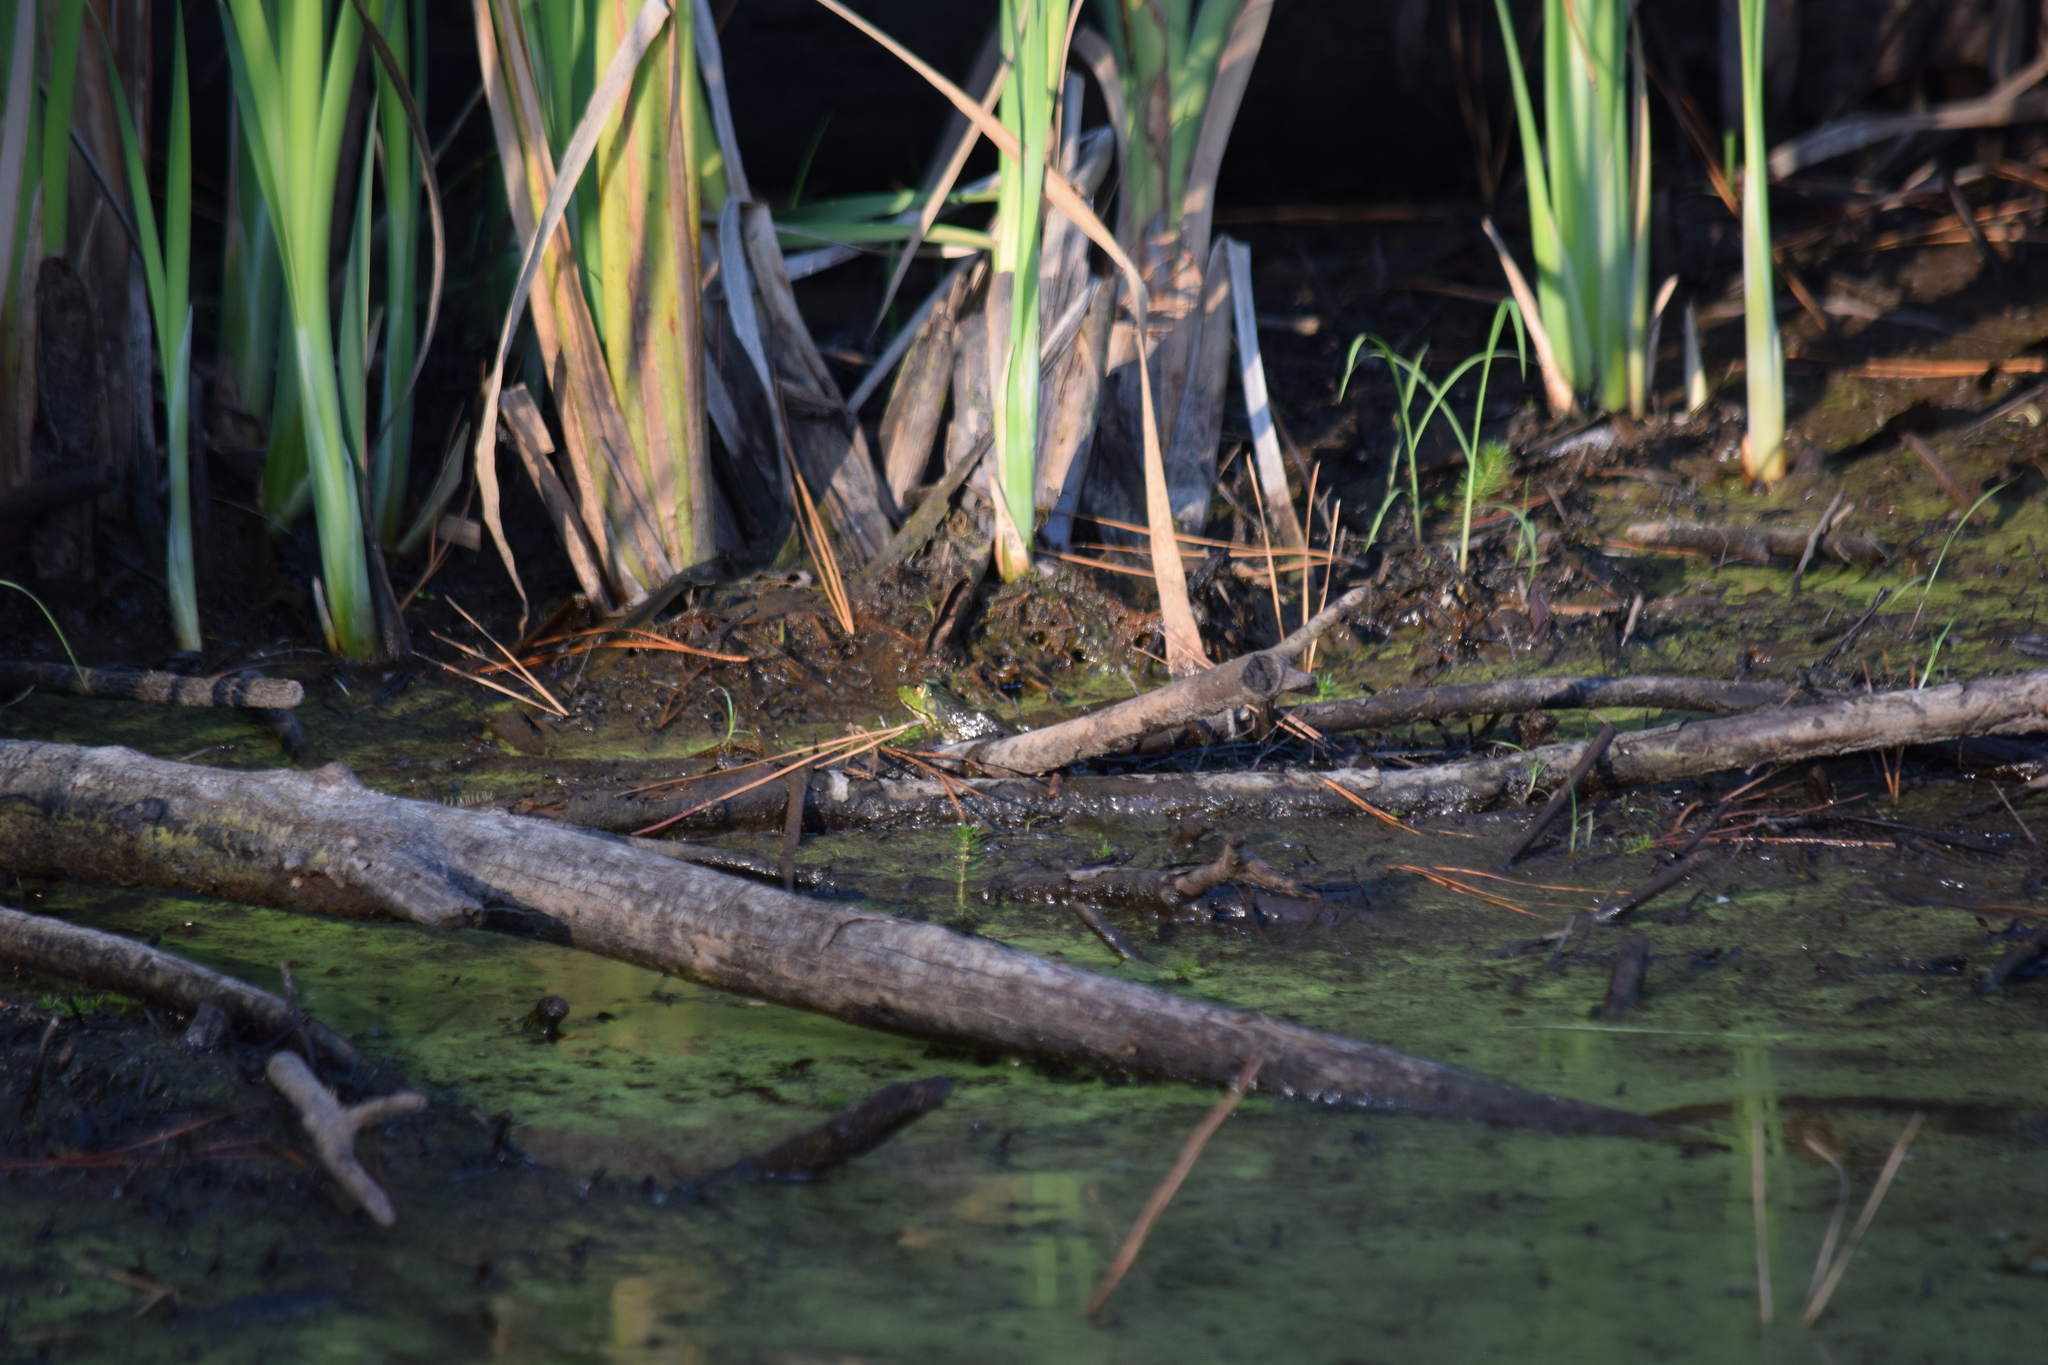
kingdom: Animalia
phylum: Chordata
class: Amphibia
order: Anura
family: Ranidae
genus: Lithobates
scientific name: Lithobates catesbeianus
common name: American bullfrog
